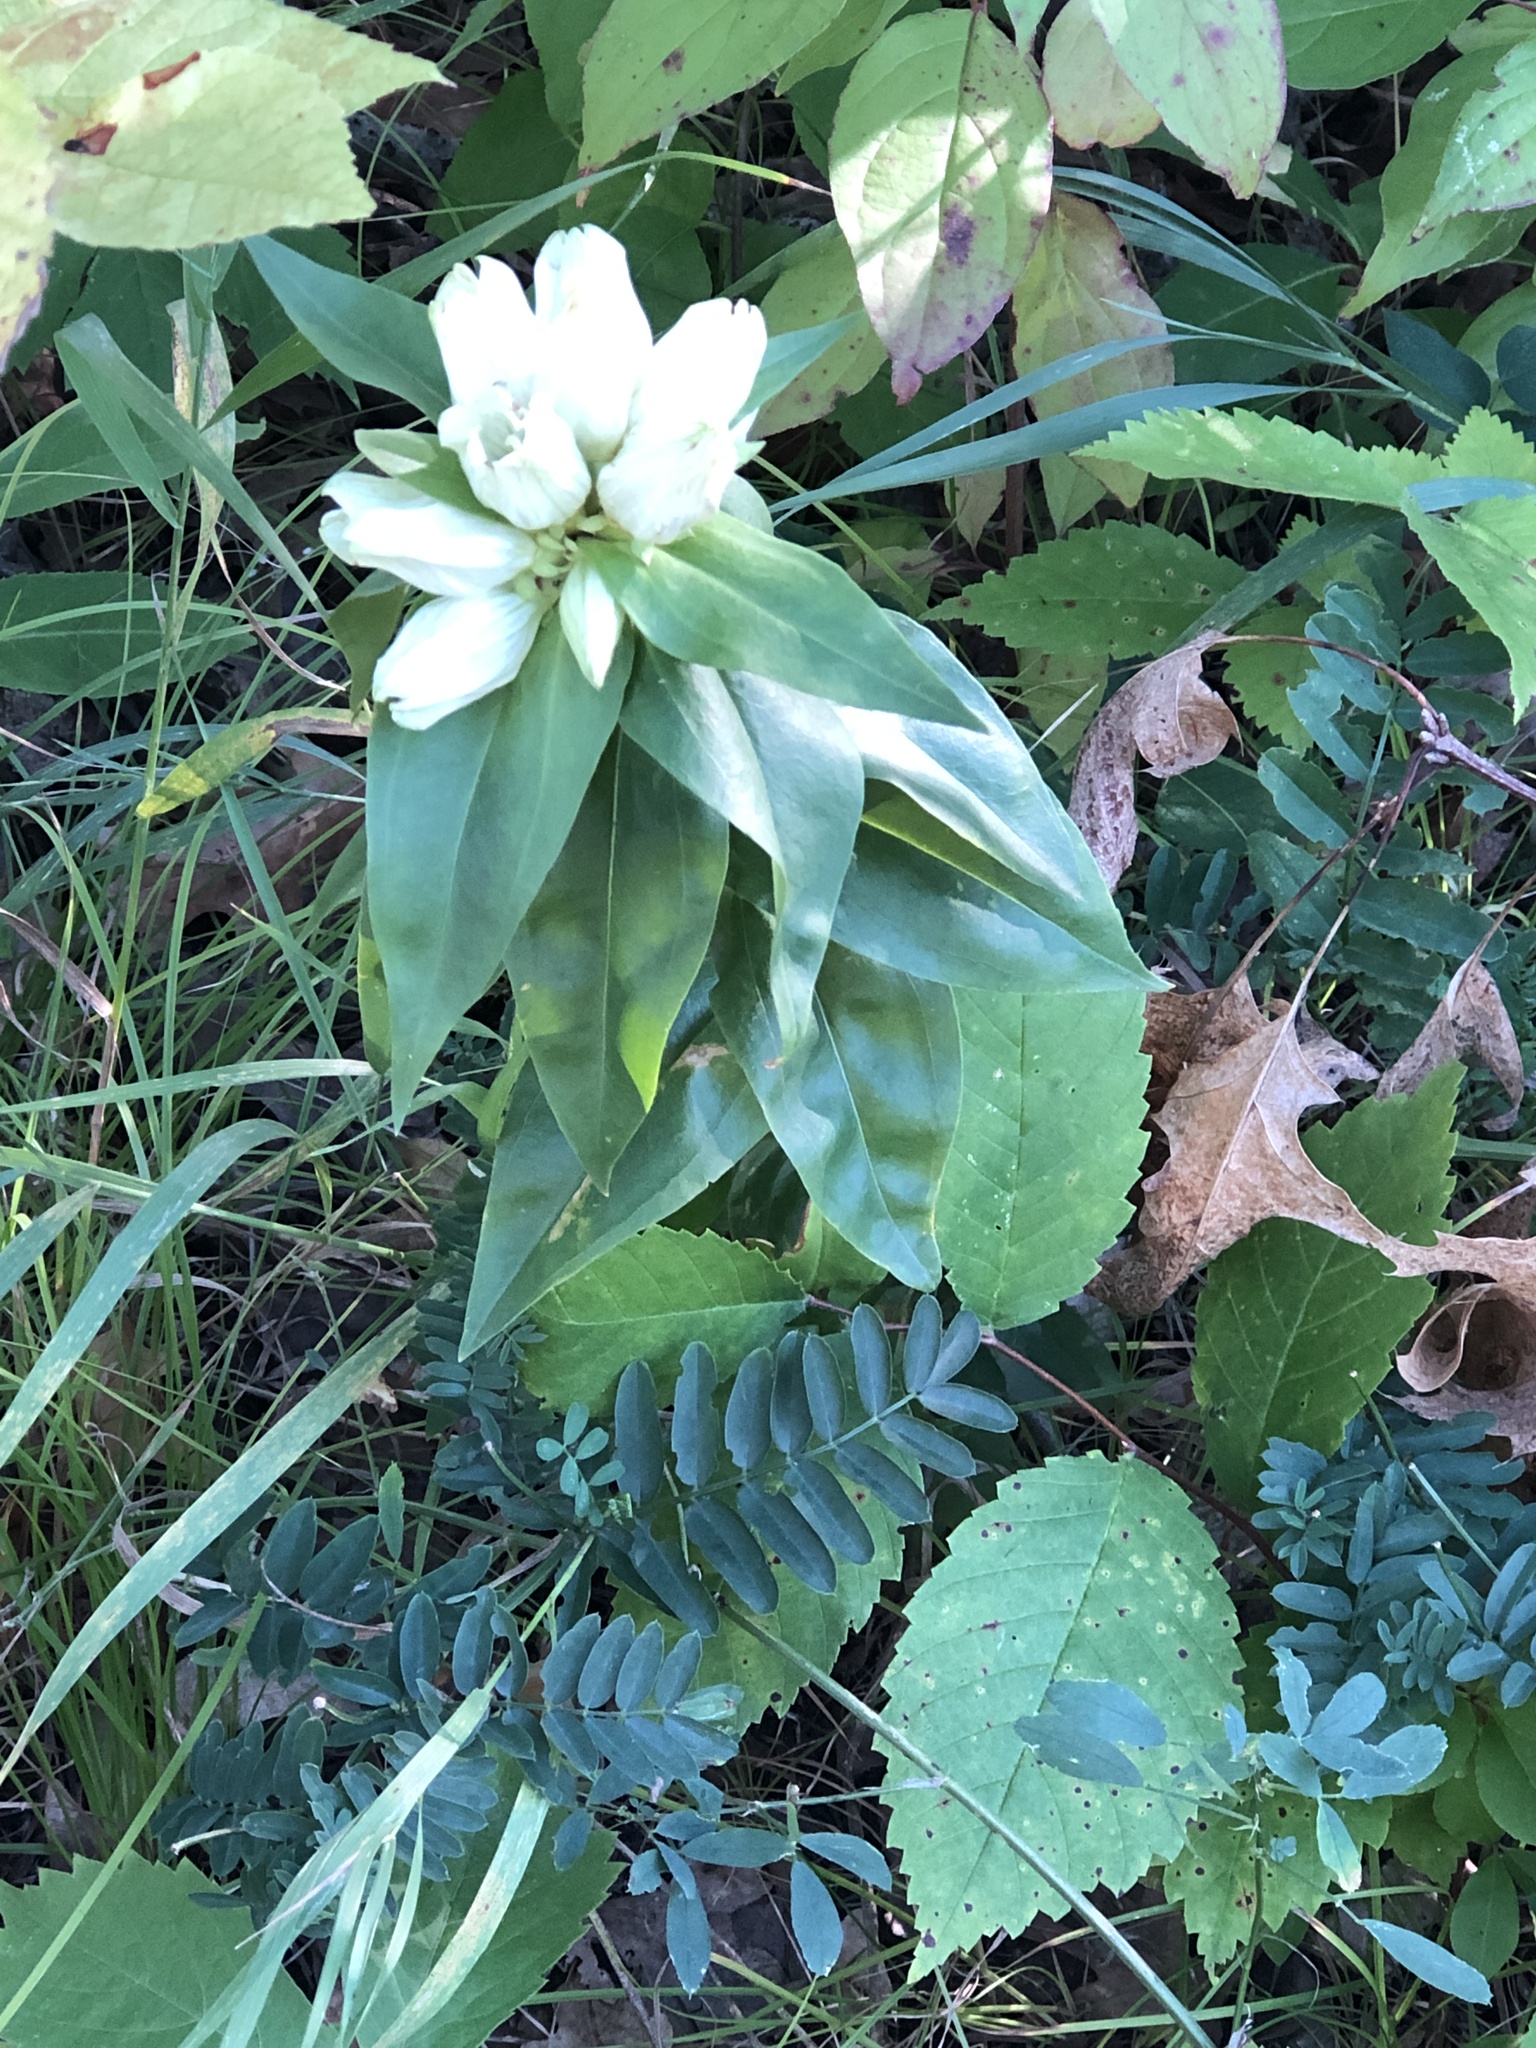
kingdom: Plantae
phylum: Tracheophyta
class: Magnoliopsida
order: Gentianales
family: Gentianaceae
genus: Gentiana
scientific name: Gentiana alba
